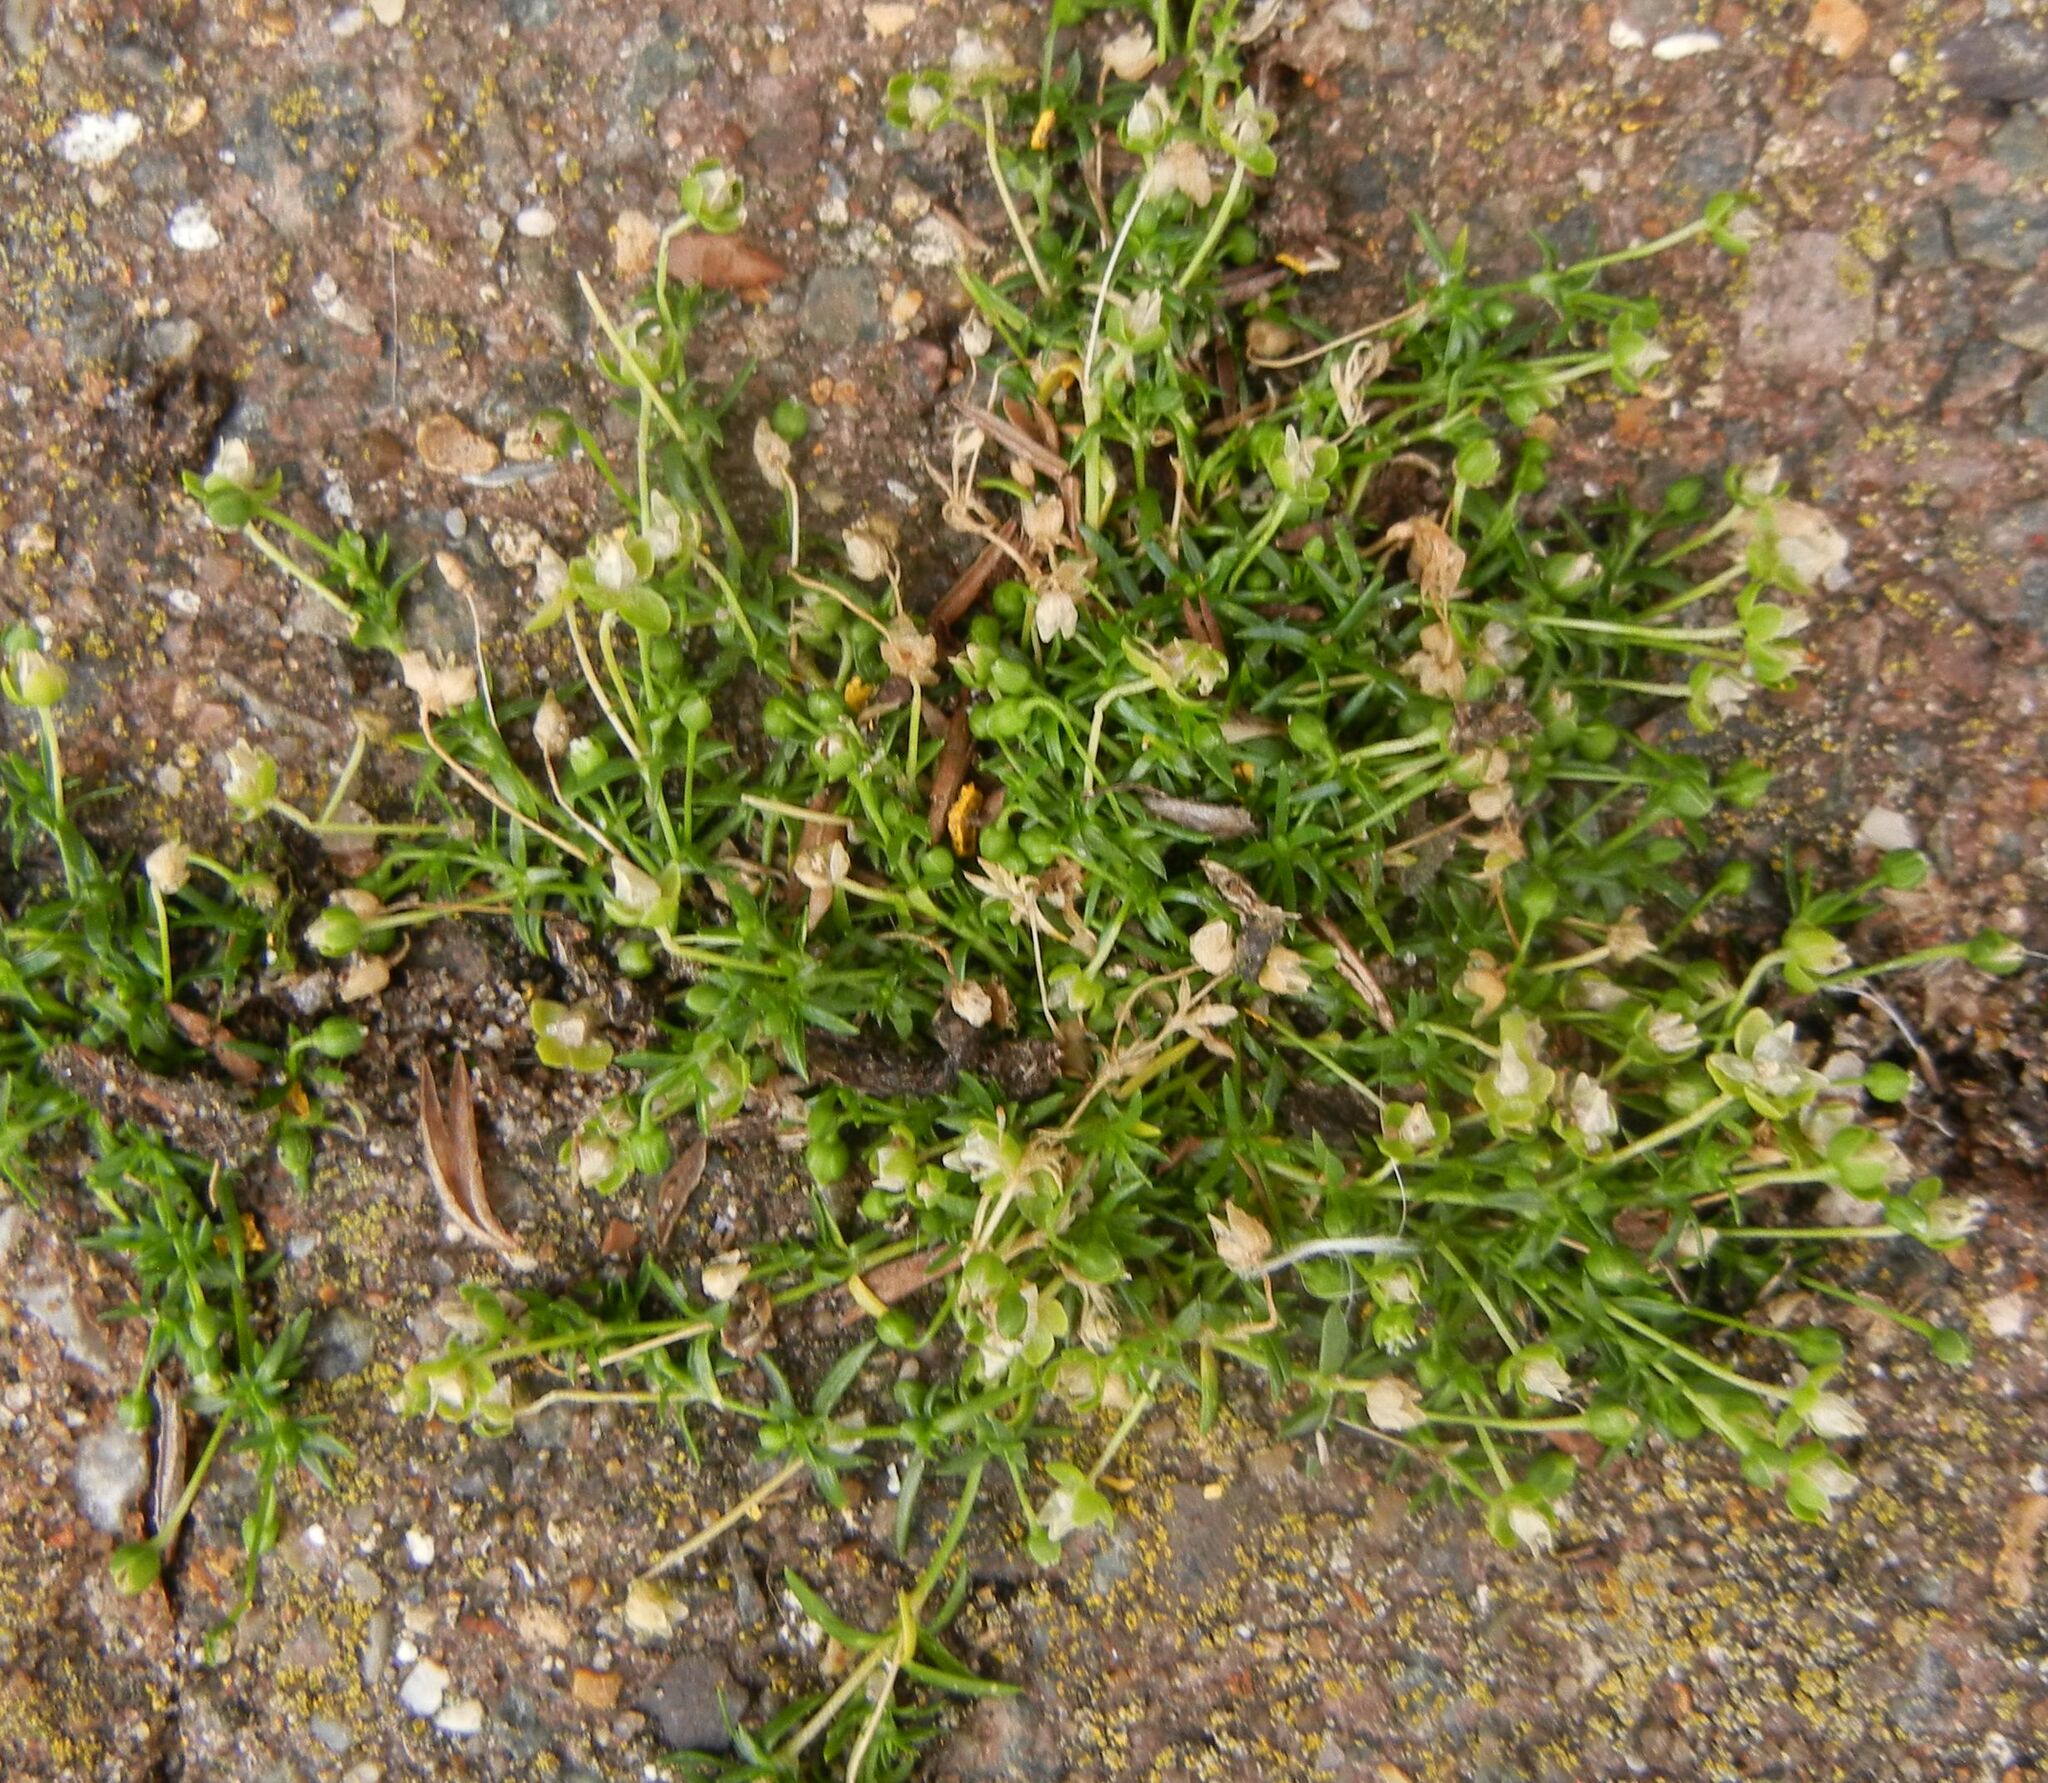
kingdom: Plantae
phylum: Tracheophyta
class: Magnoliopsida
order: Caryophyllales
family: Caryophyllaceae
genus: Sagina
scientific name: Sagina procumbens
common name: Procumbent pearlwort
